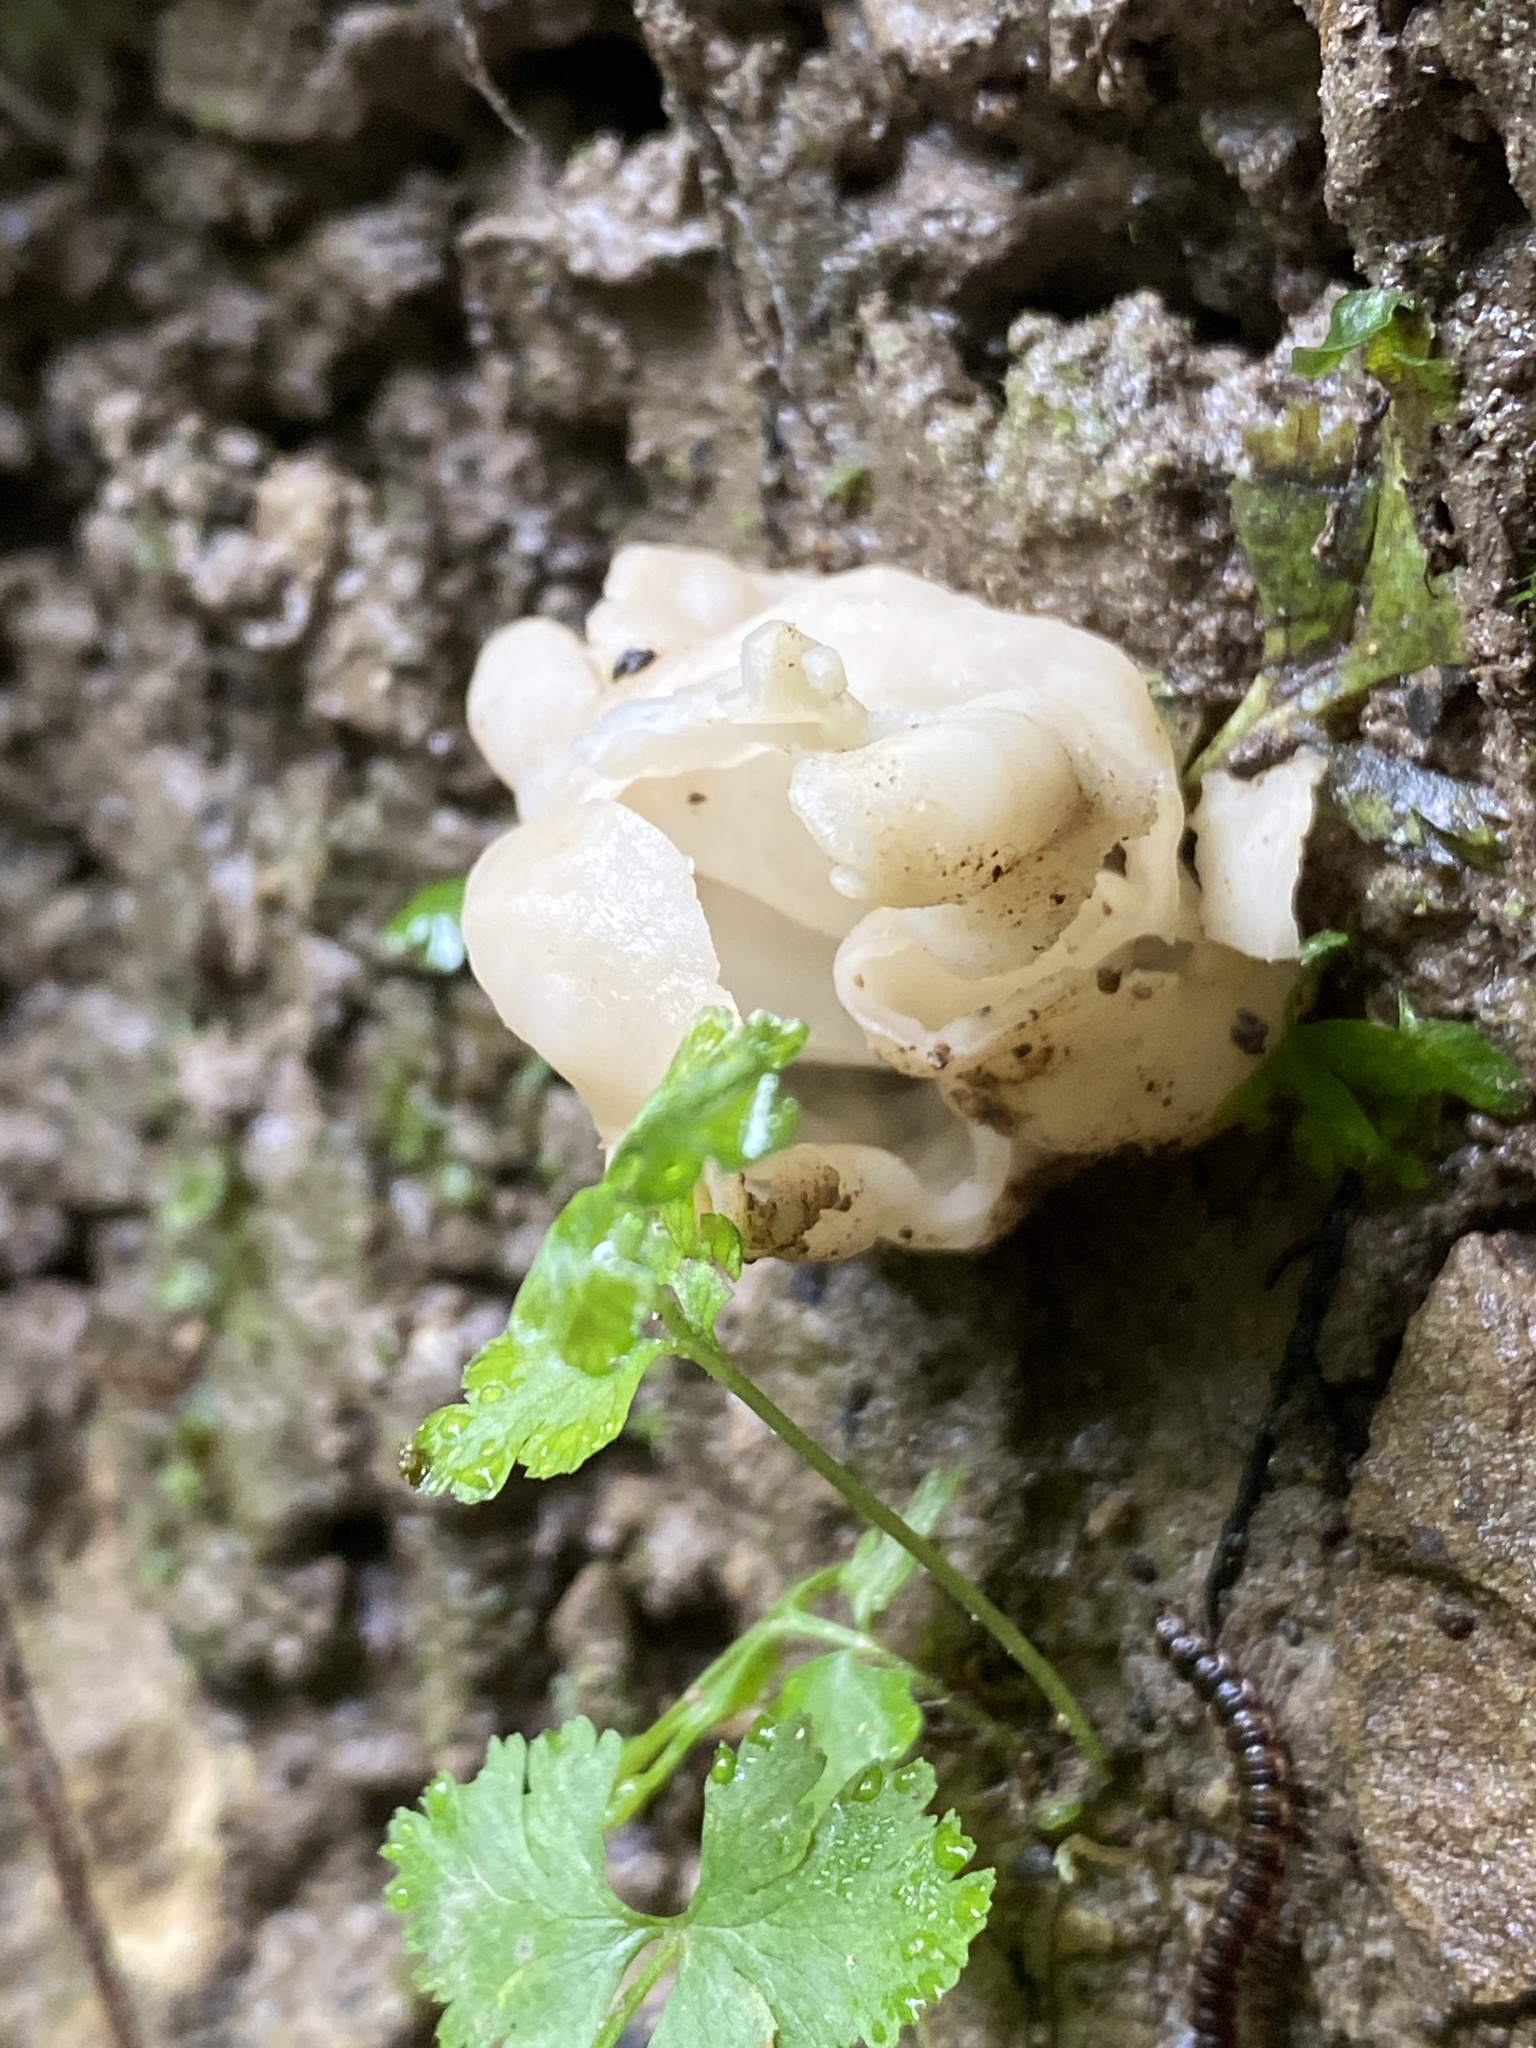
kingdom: Fungi
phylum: Basidiomycota
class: Agaricomycetes
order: Auriculariales
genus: Ductifera
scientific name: Ductifera pululahuana
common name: White jelly fungus
